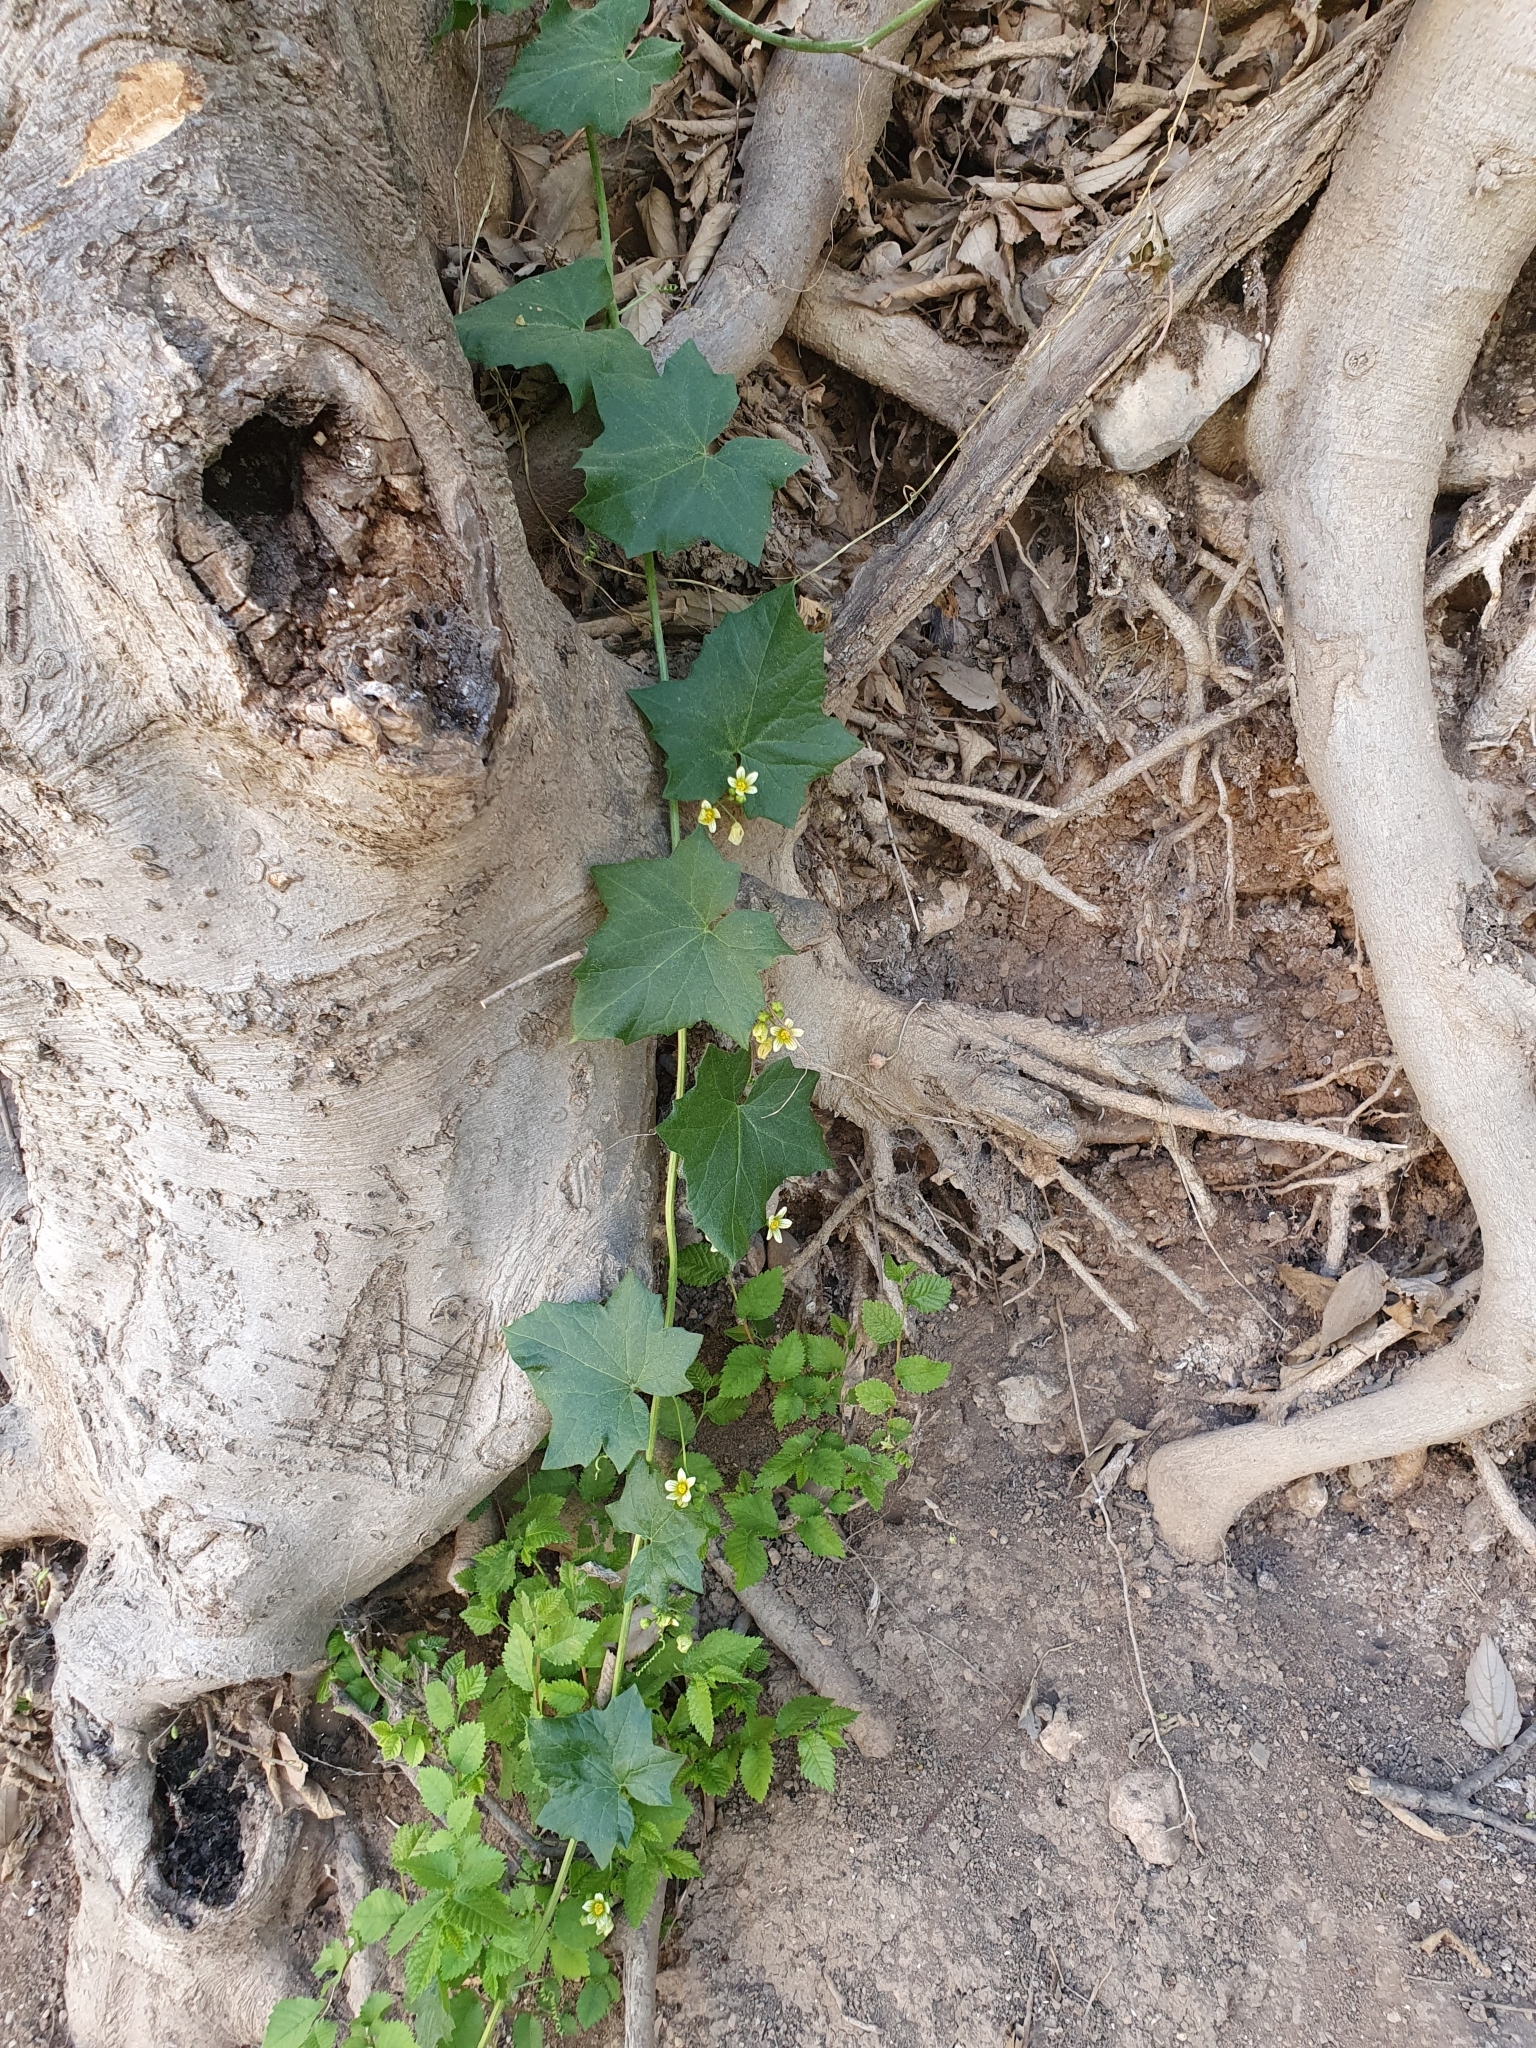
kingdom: Plantae
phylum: Tracheophyta
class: Magnoliopsida
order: Cucurbitales
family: Cucurbitaceae
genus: Bryonia
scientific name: Bryonia acuta
